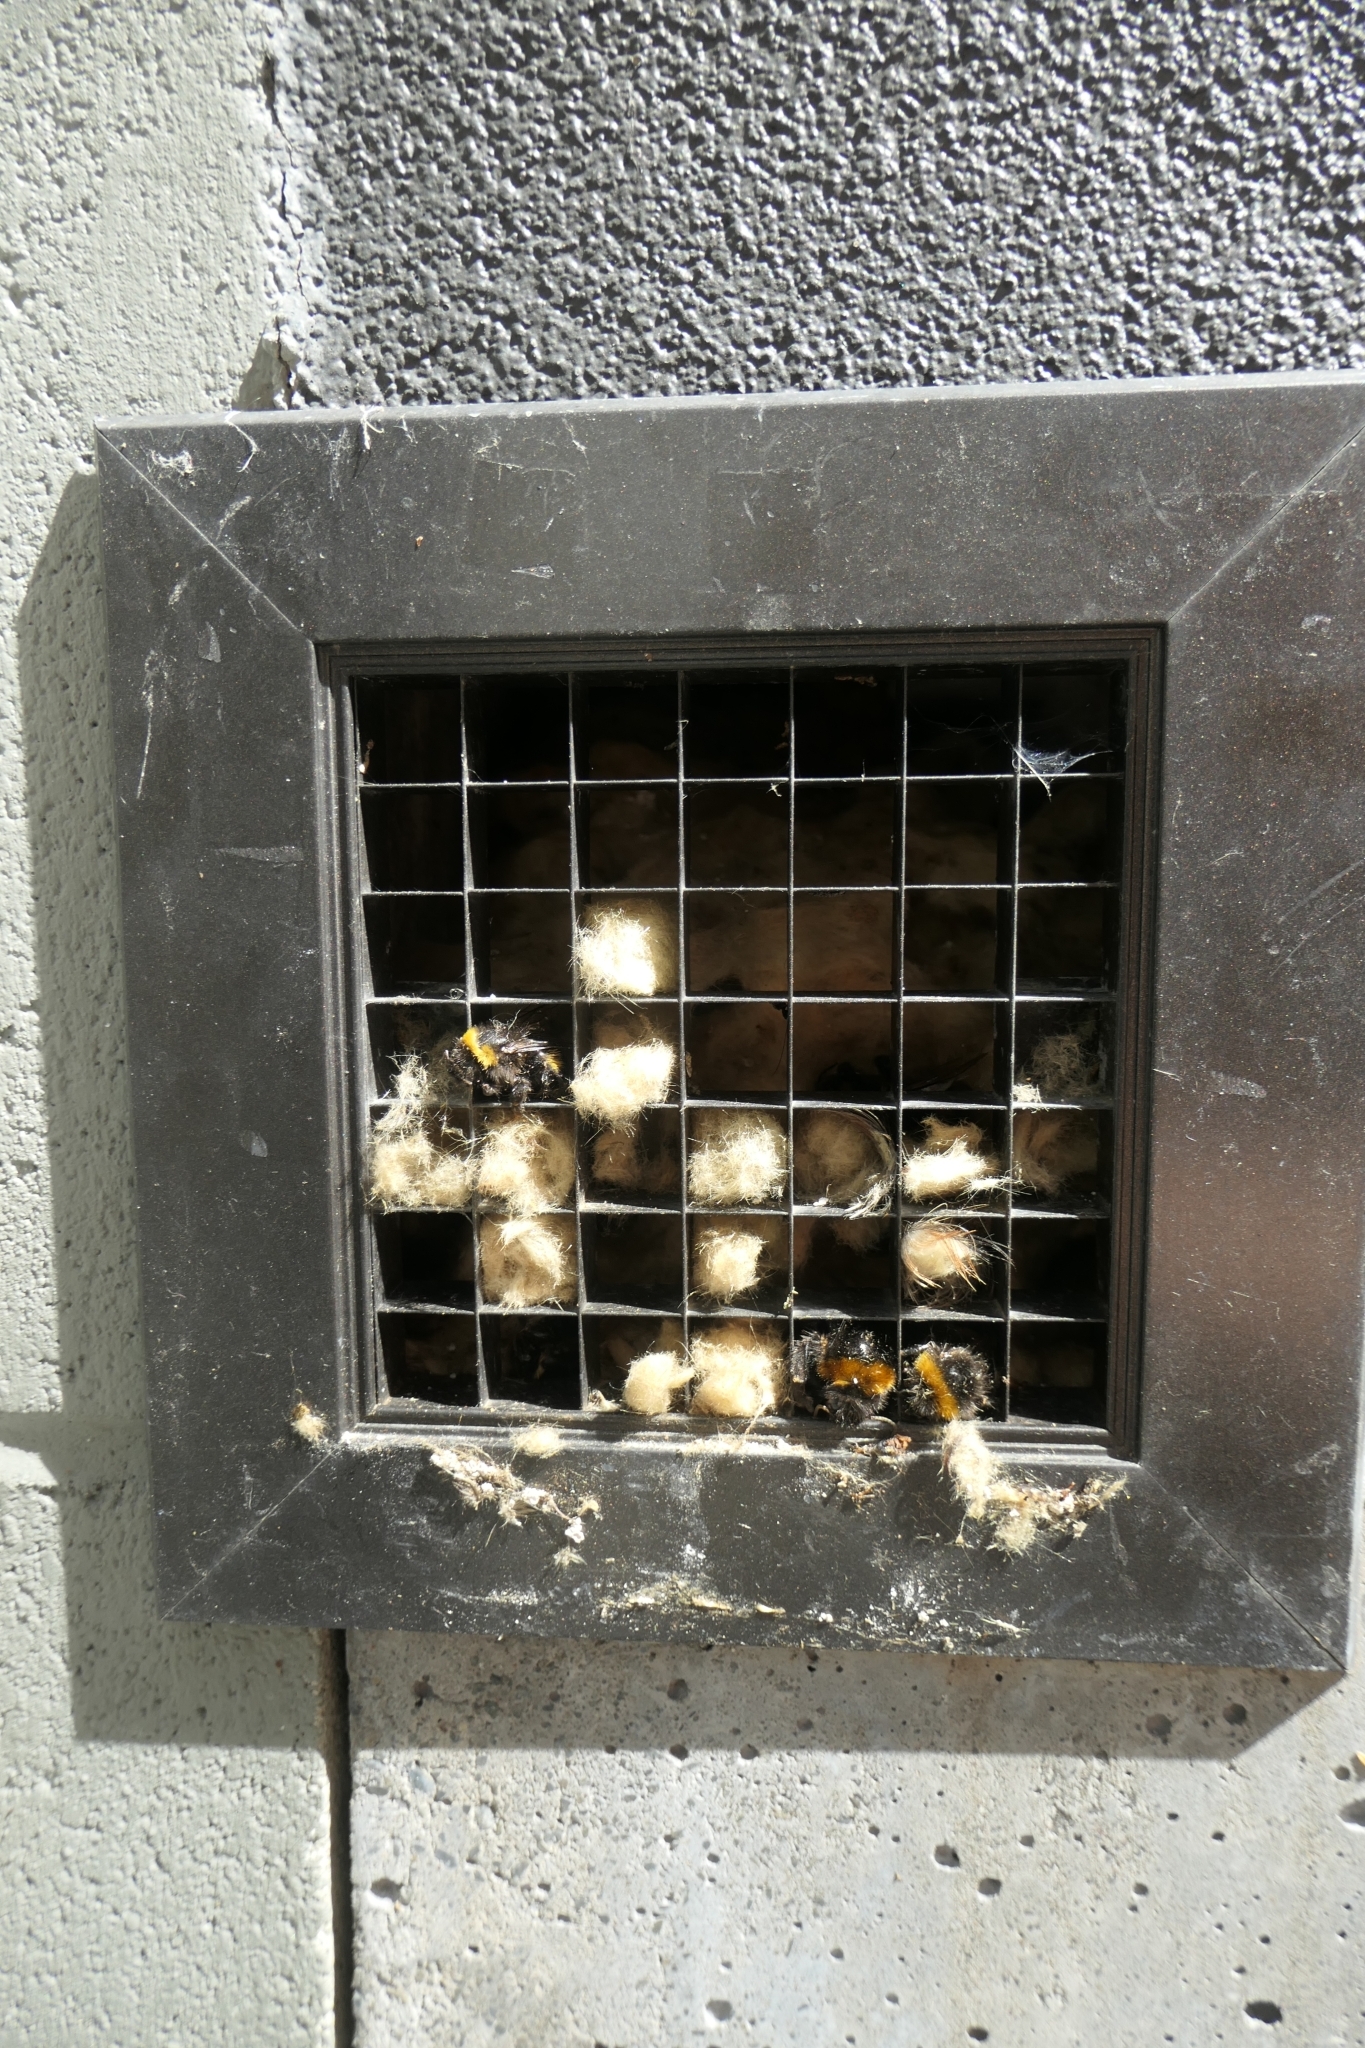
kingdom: Animalia
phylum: Arthropoda
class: Insecta
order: Hymenoptera
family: Apidae
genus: Bombus
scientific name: Bombus terrestris
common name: Buff-tailed bumblebee
